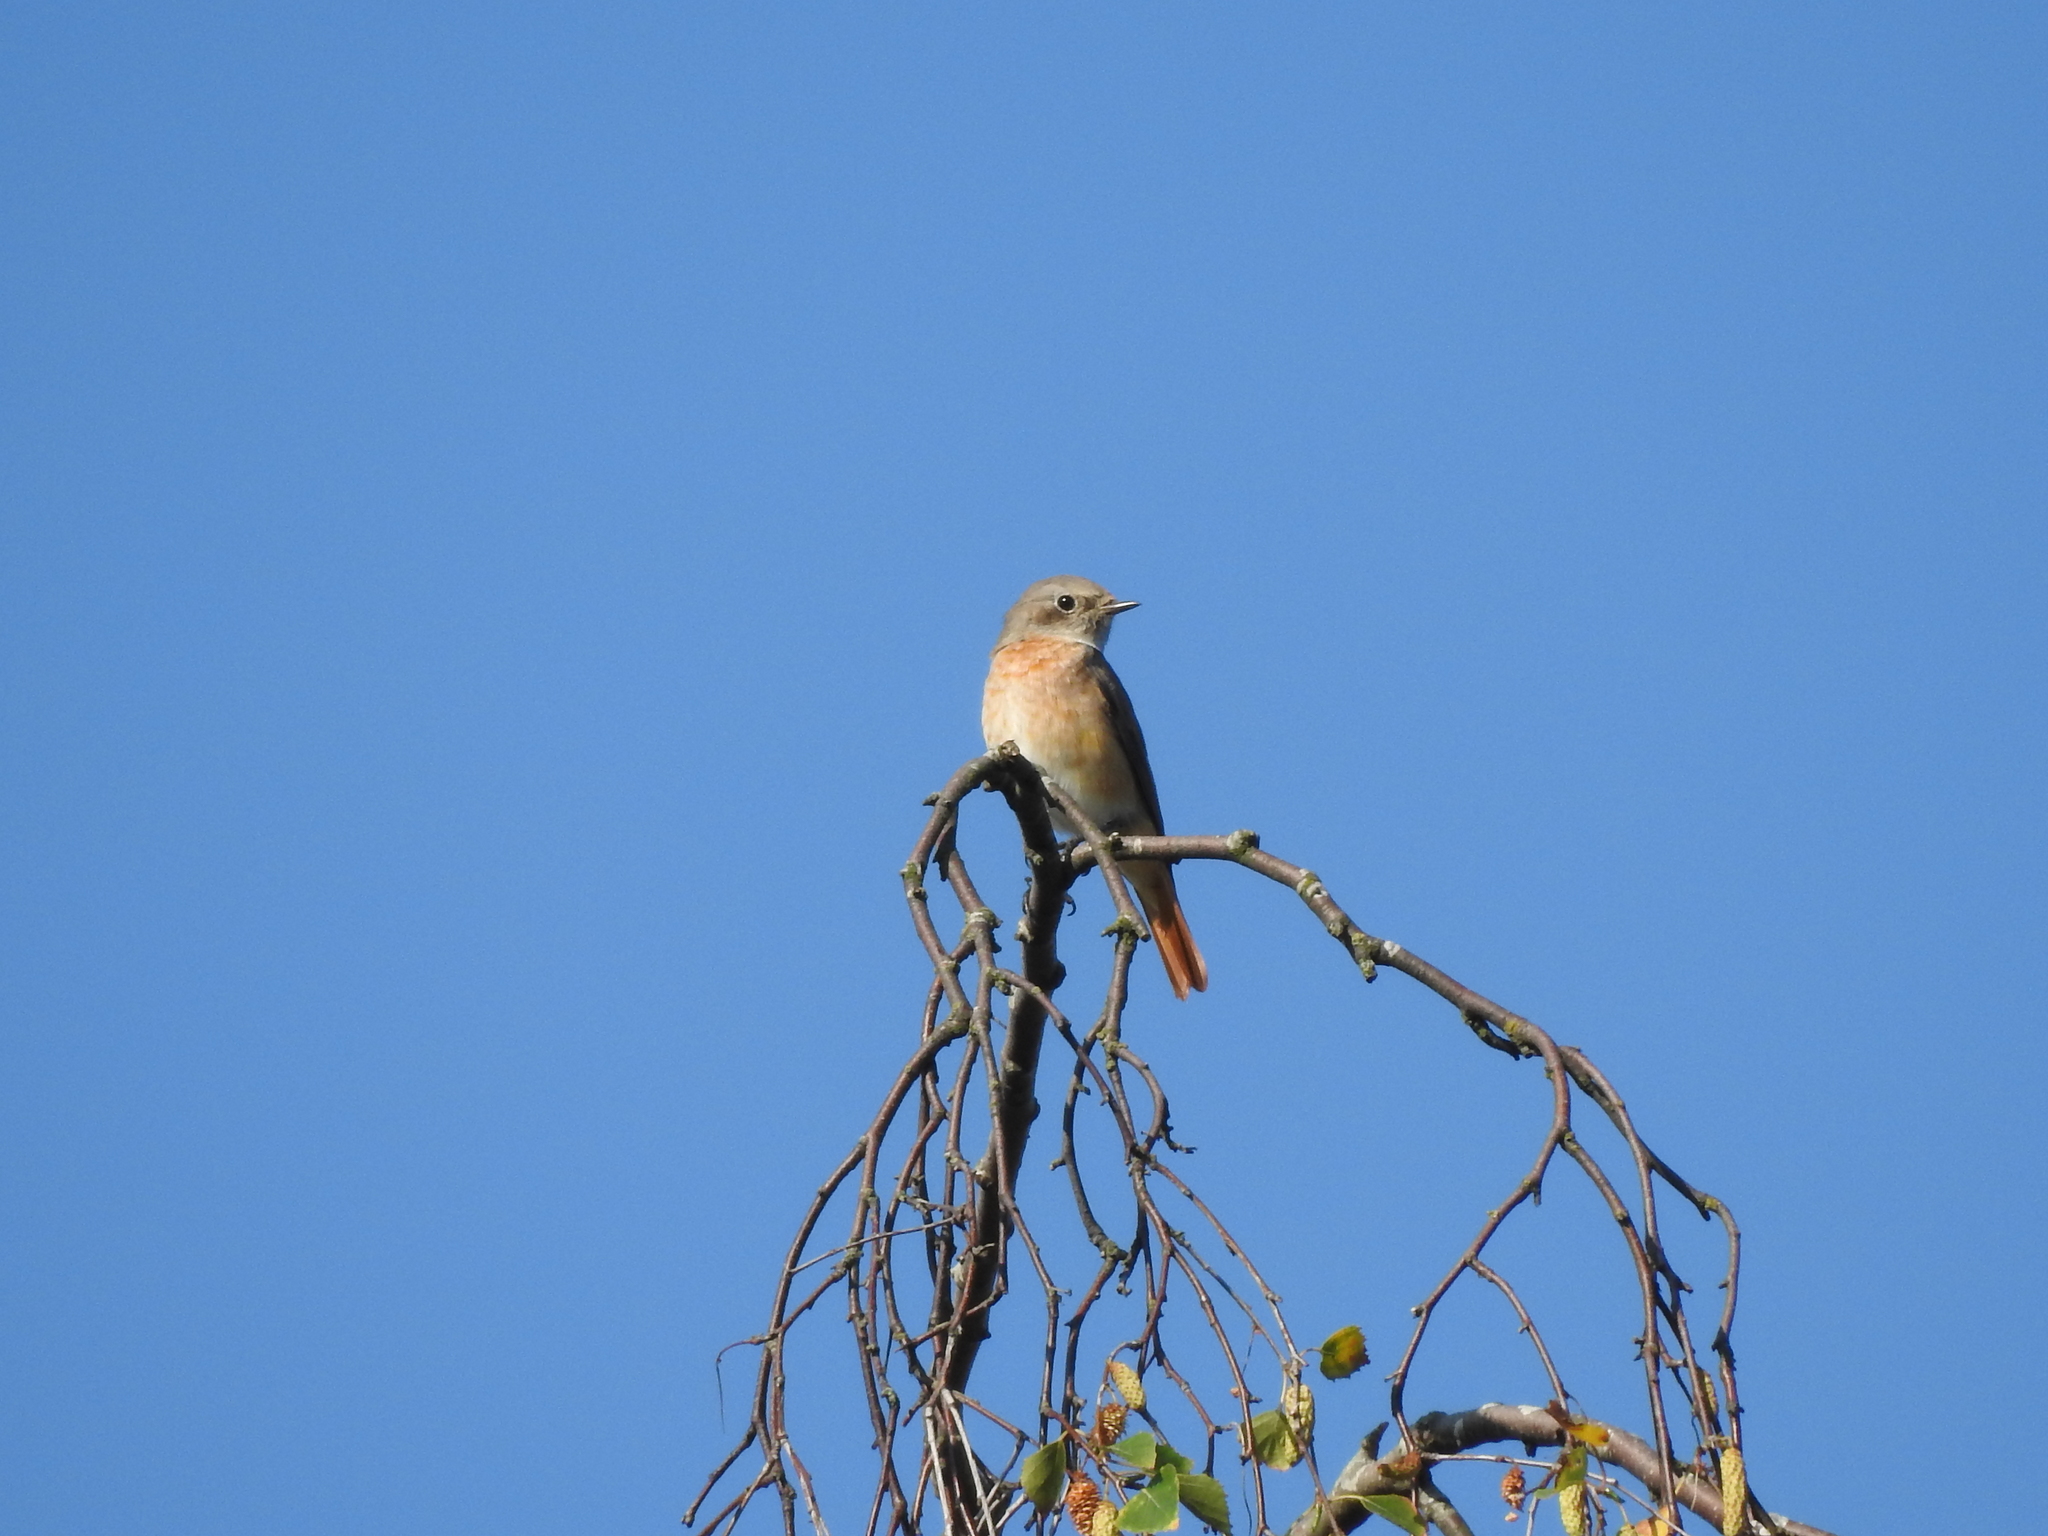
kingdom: Animalia
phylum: Chordata
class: Aves
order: Passeriformes
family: Muscicapidae
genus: Phoenicurus
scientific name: Phoenicurus phoenicurus
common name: Common redstart
